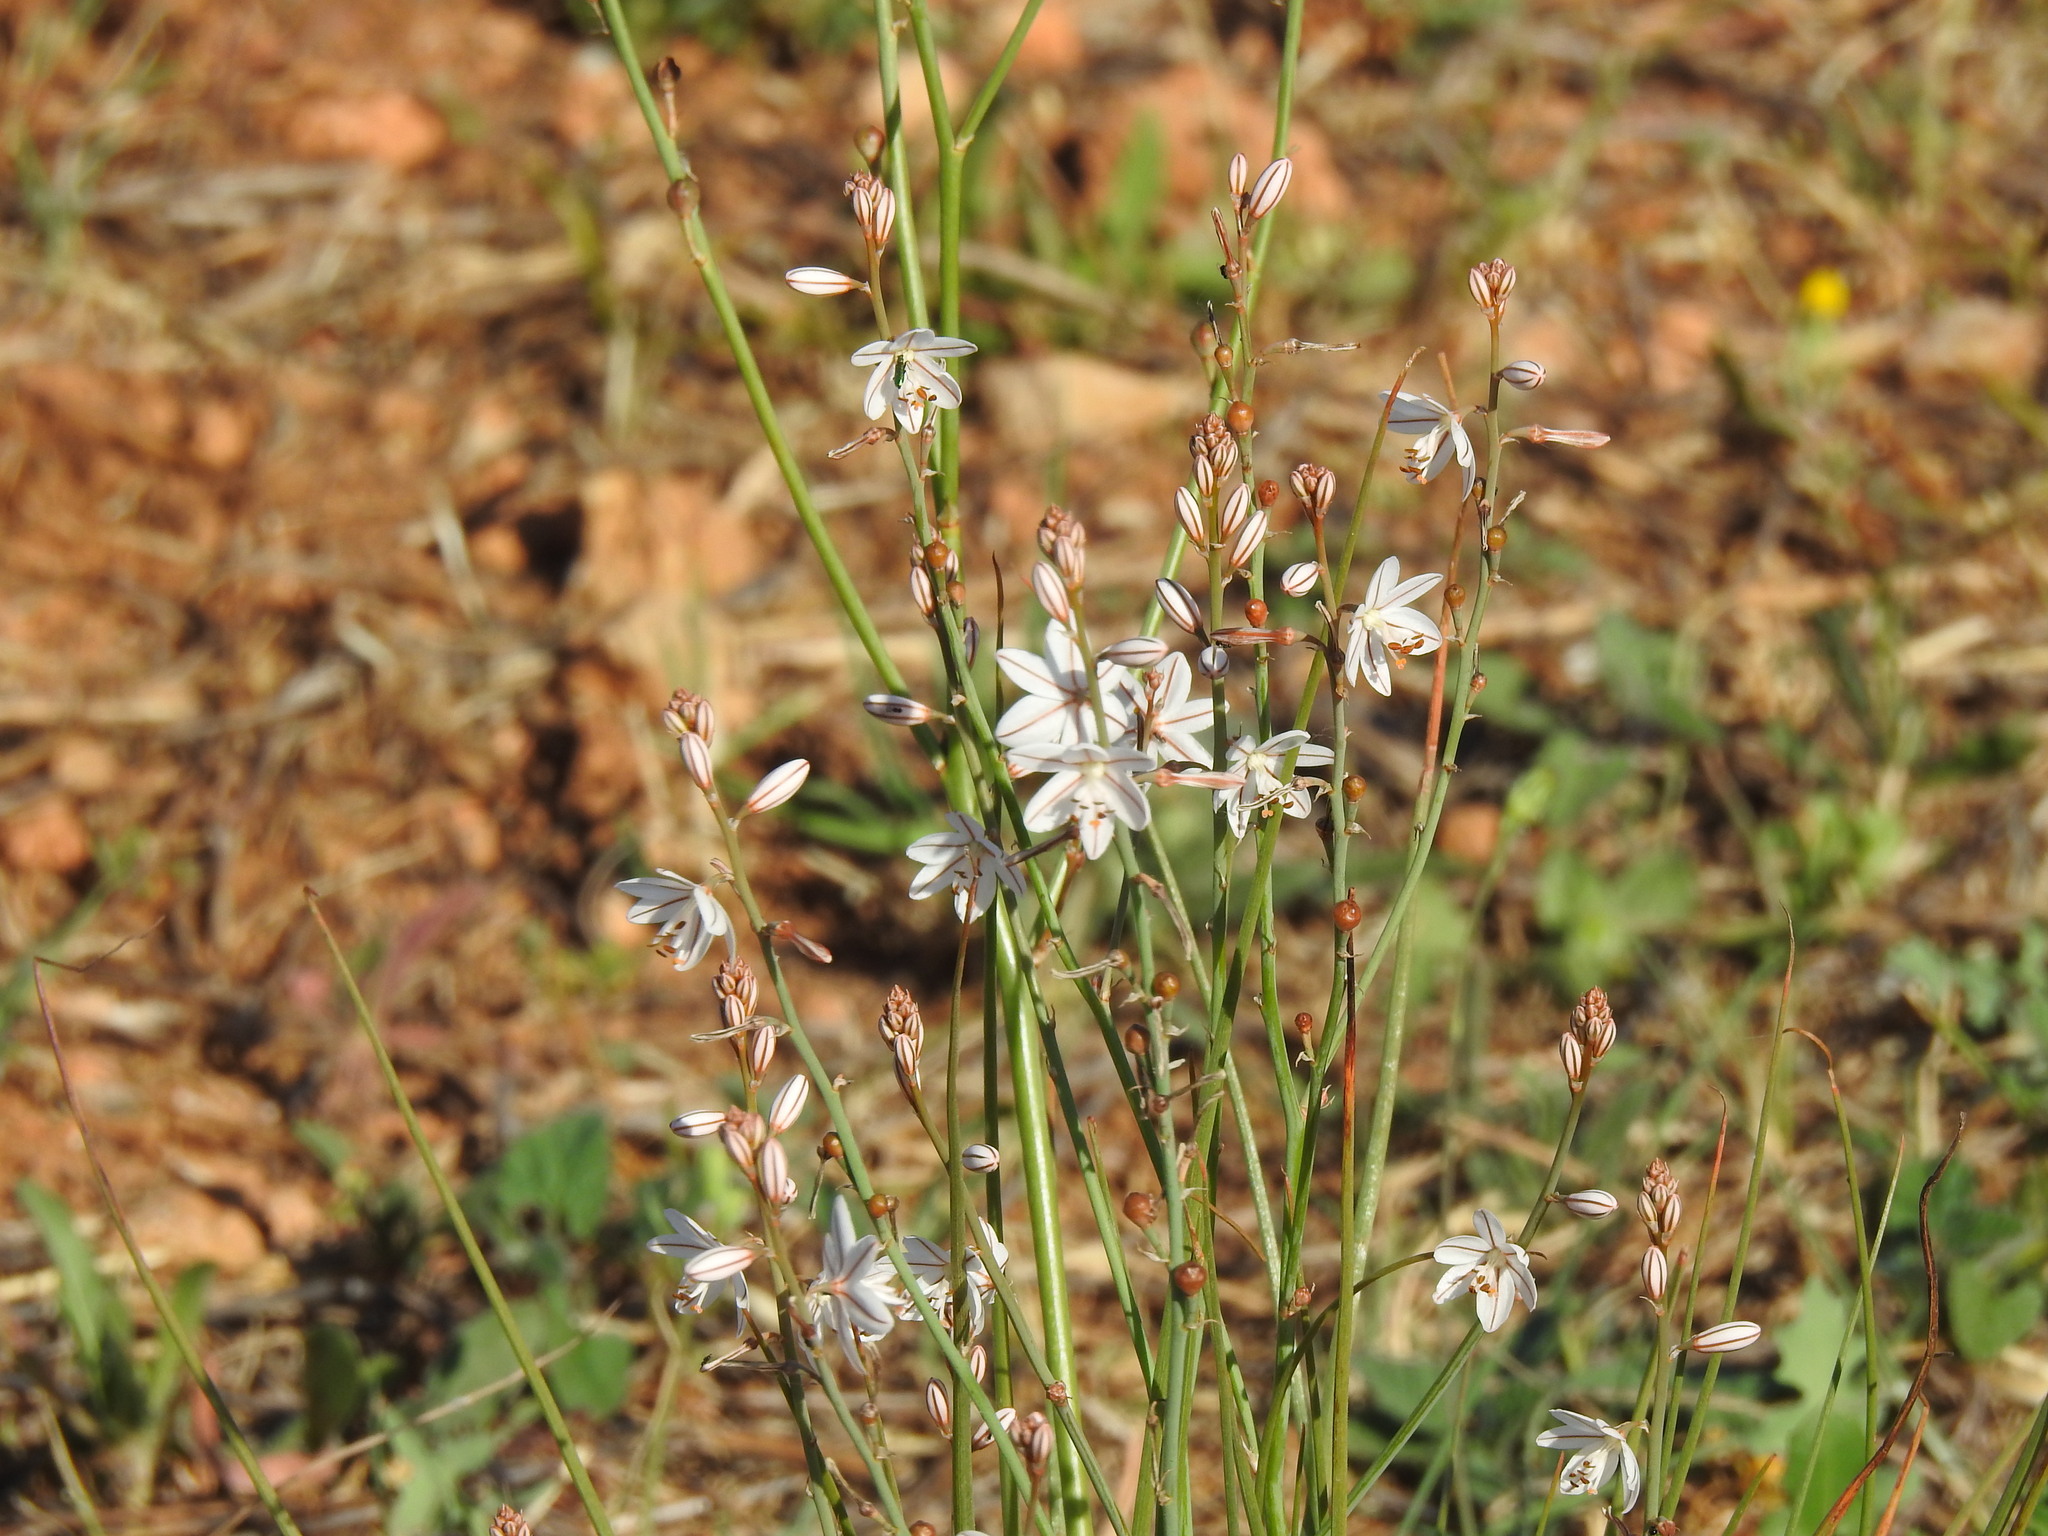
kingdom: Plantae
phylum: Tracheophyta
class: Liliopsida
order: Asparagales
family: Asphodelaceae
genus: Asphodelus
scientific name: Asphodelus fistulosus
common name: Onionweed
